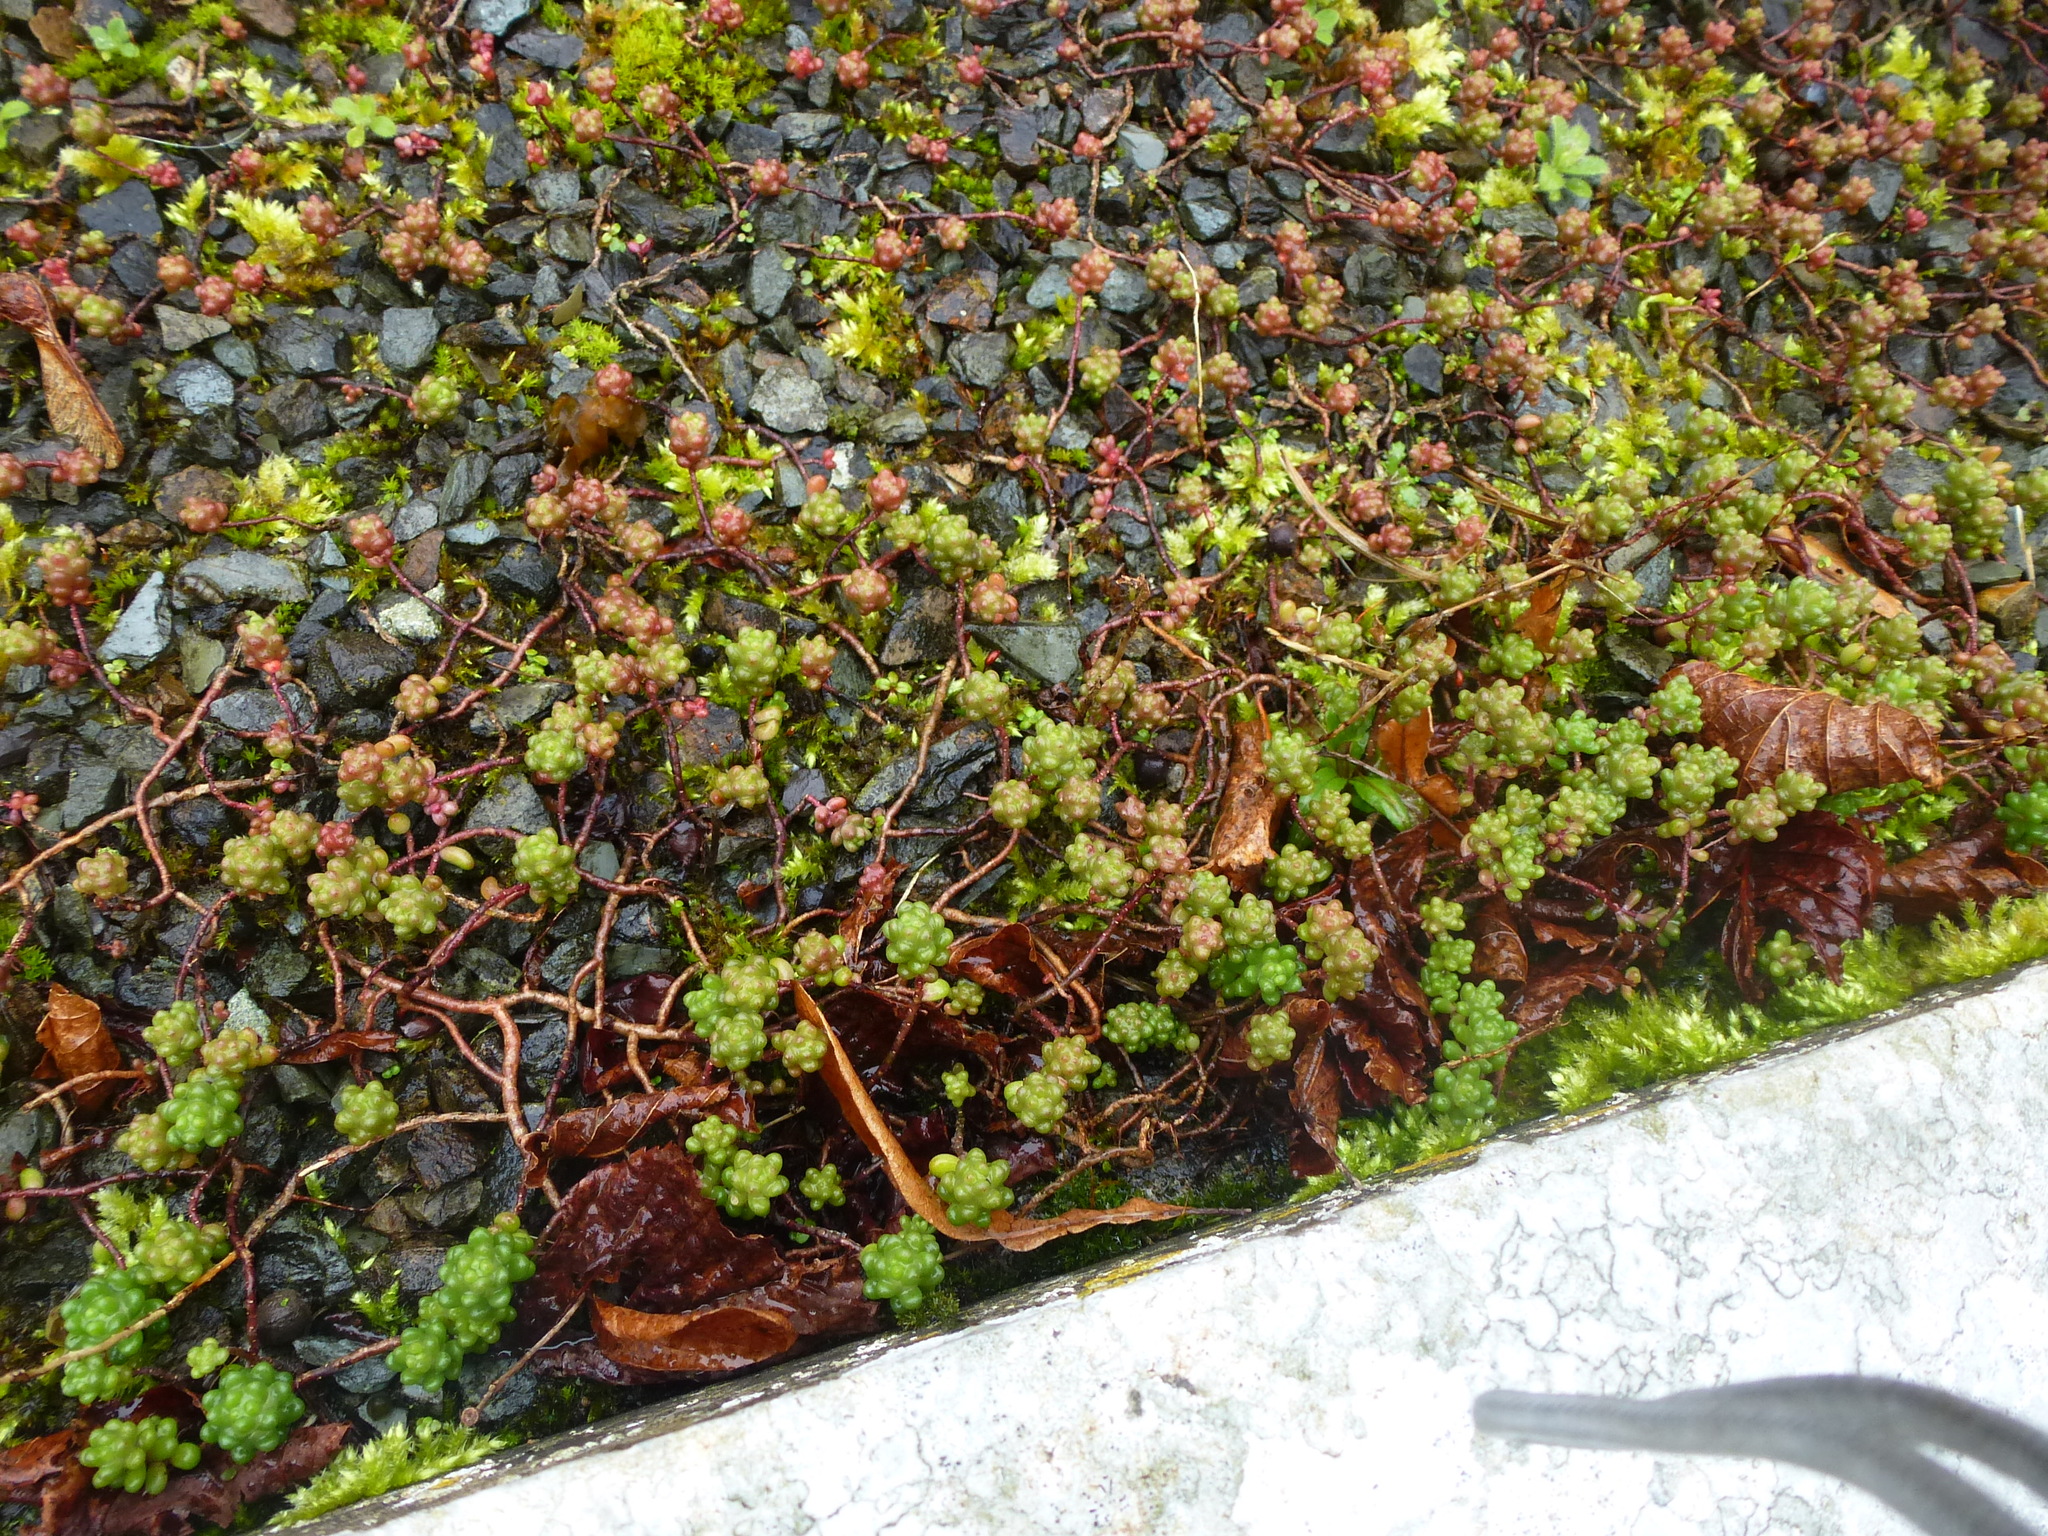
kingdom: Plantae
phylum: Tracheophyta
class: Magnoliopsida
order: Saxifragales
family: Crassulaceae
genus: Sedum
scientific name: Sedum album
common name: White stonecrop
